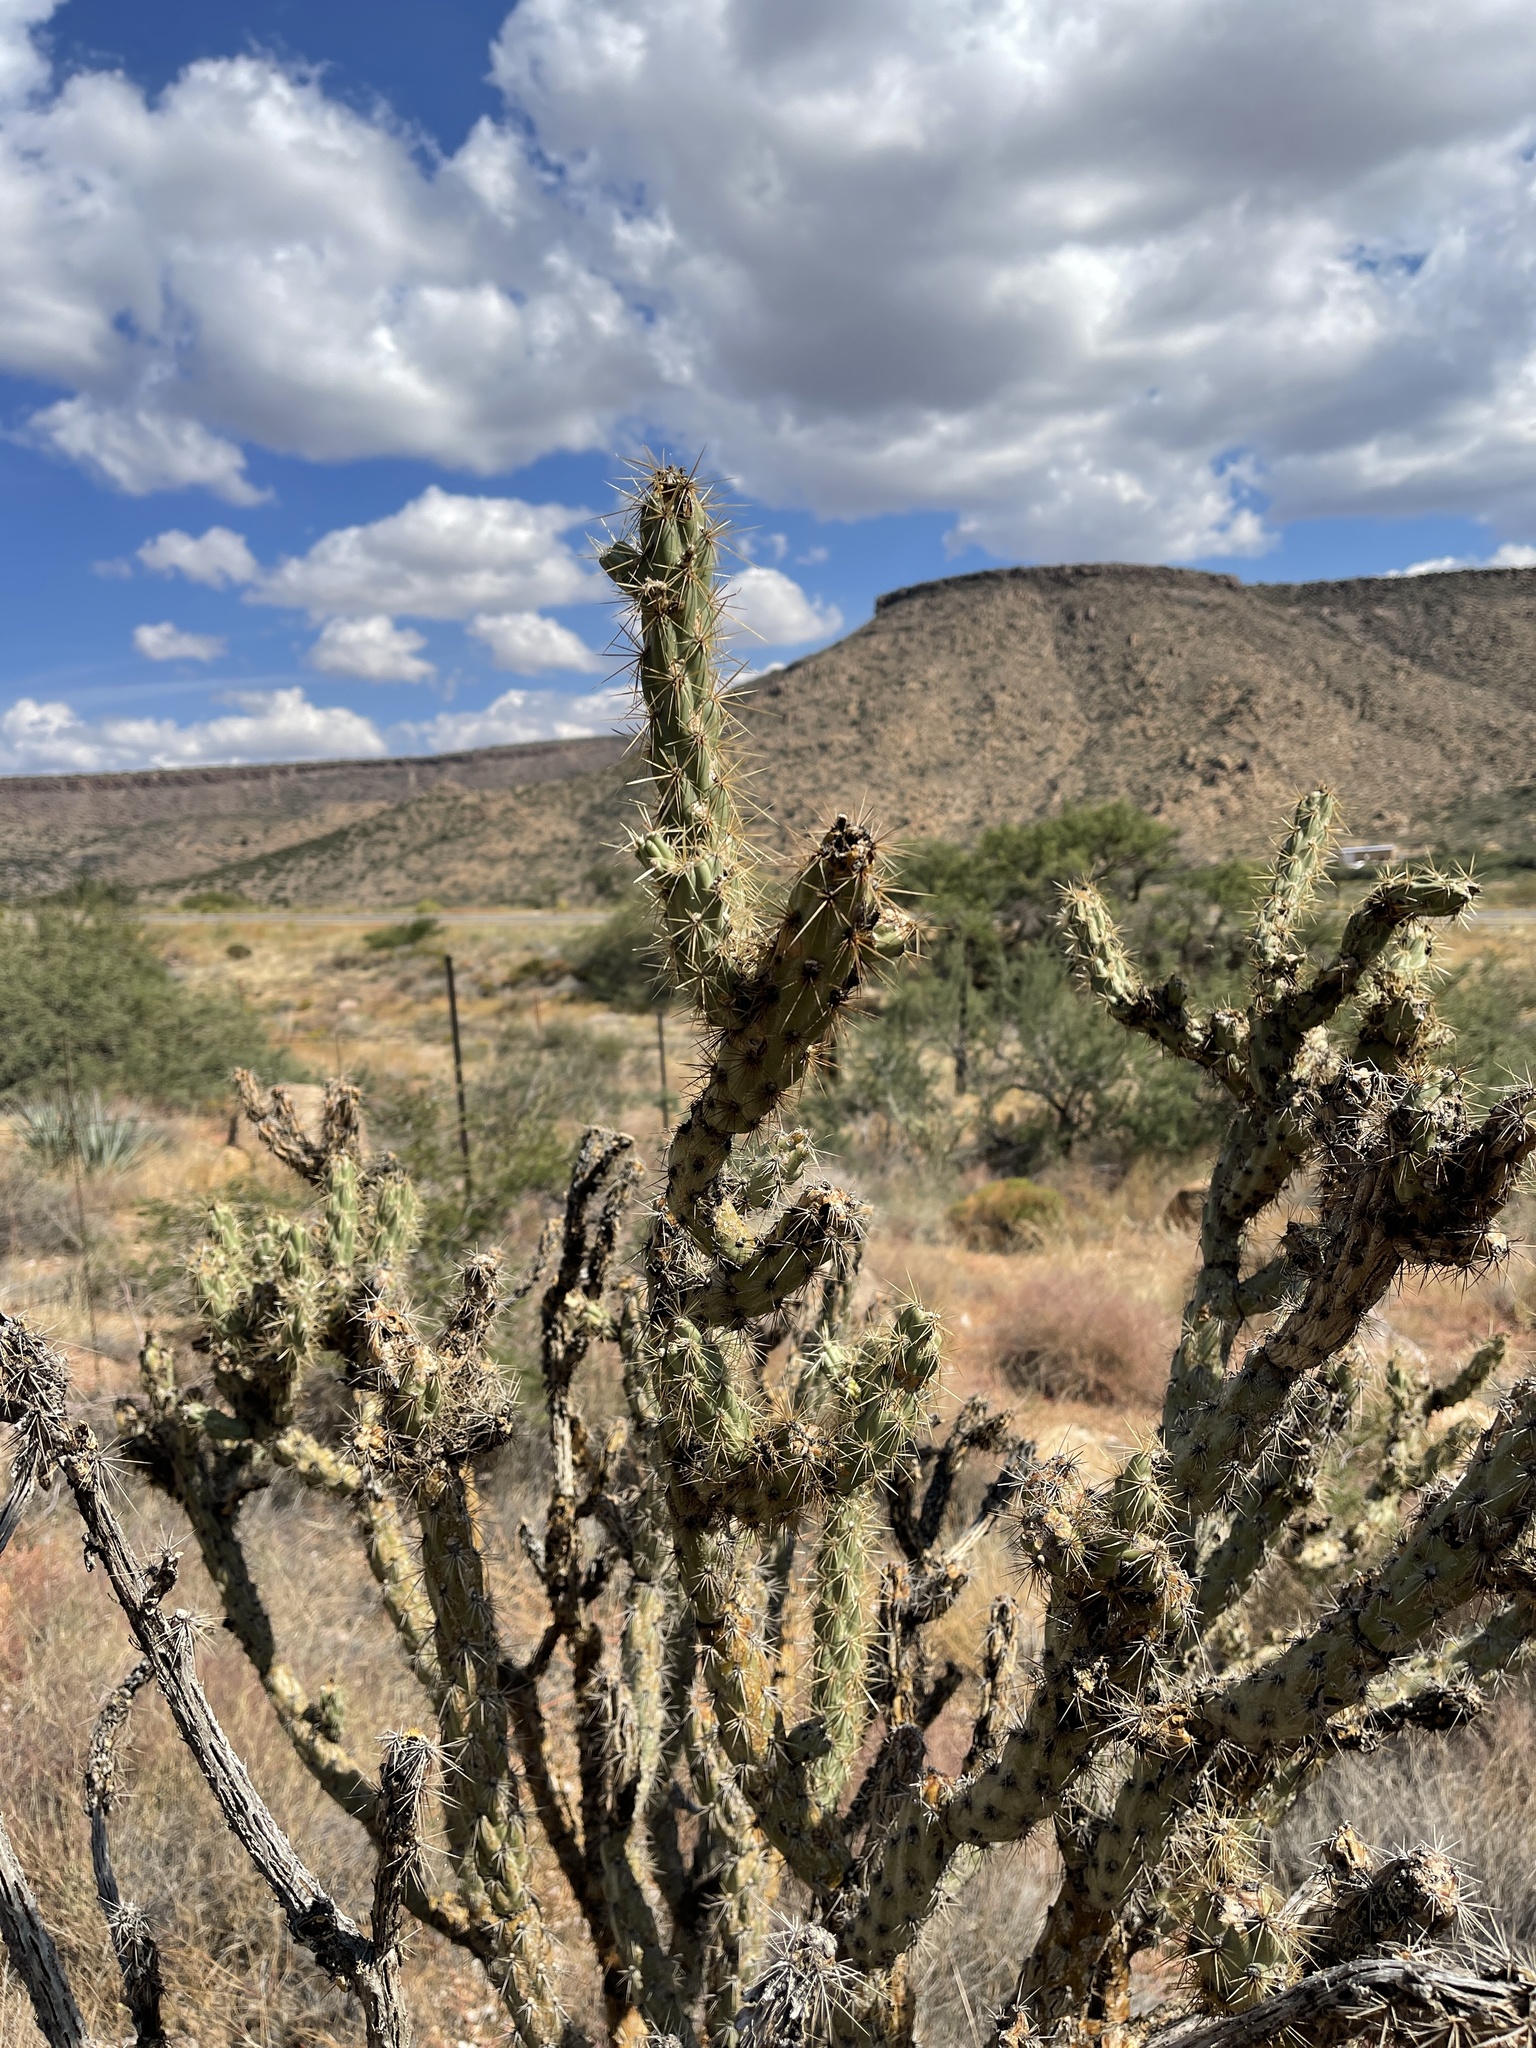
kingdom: Plantae
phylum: Tracheophyta
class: Magnoliopsida
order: Caryophyllales
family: Cactaceae
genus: Cylindropuntia
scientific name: Cylindropuntia acanthocarpa
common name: Buckhorn cholla
